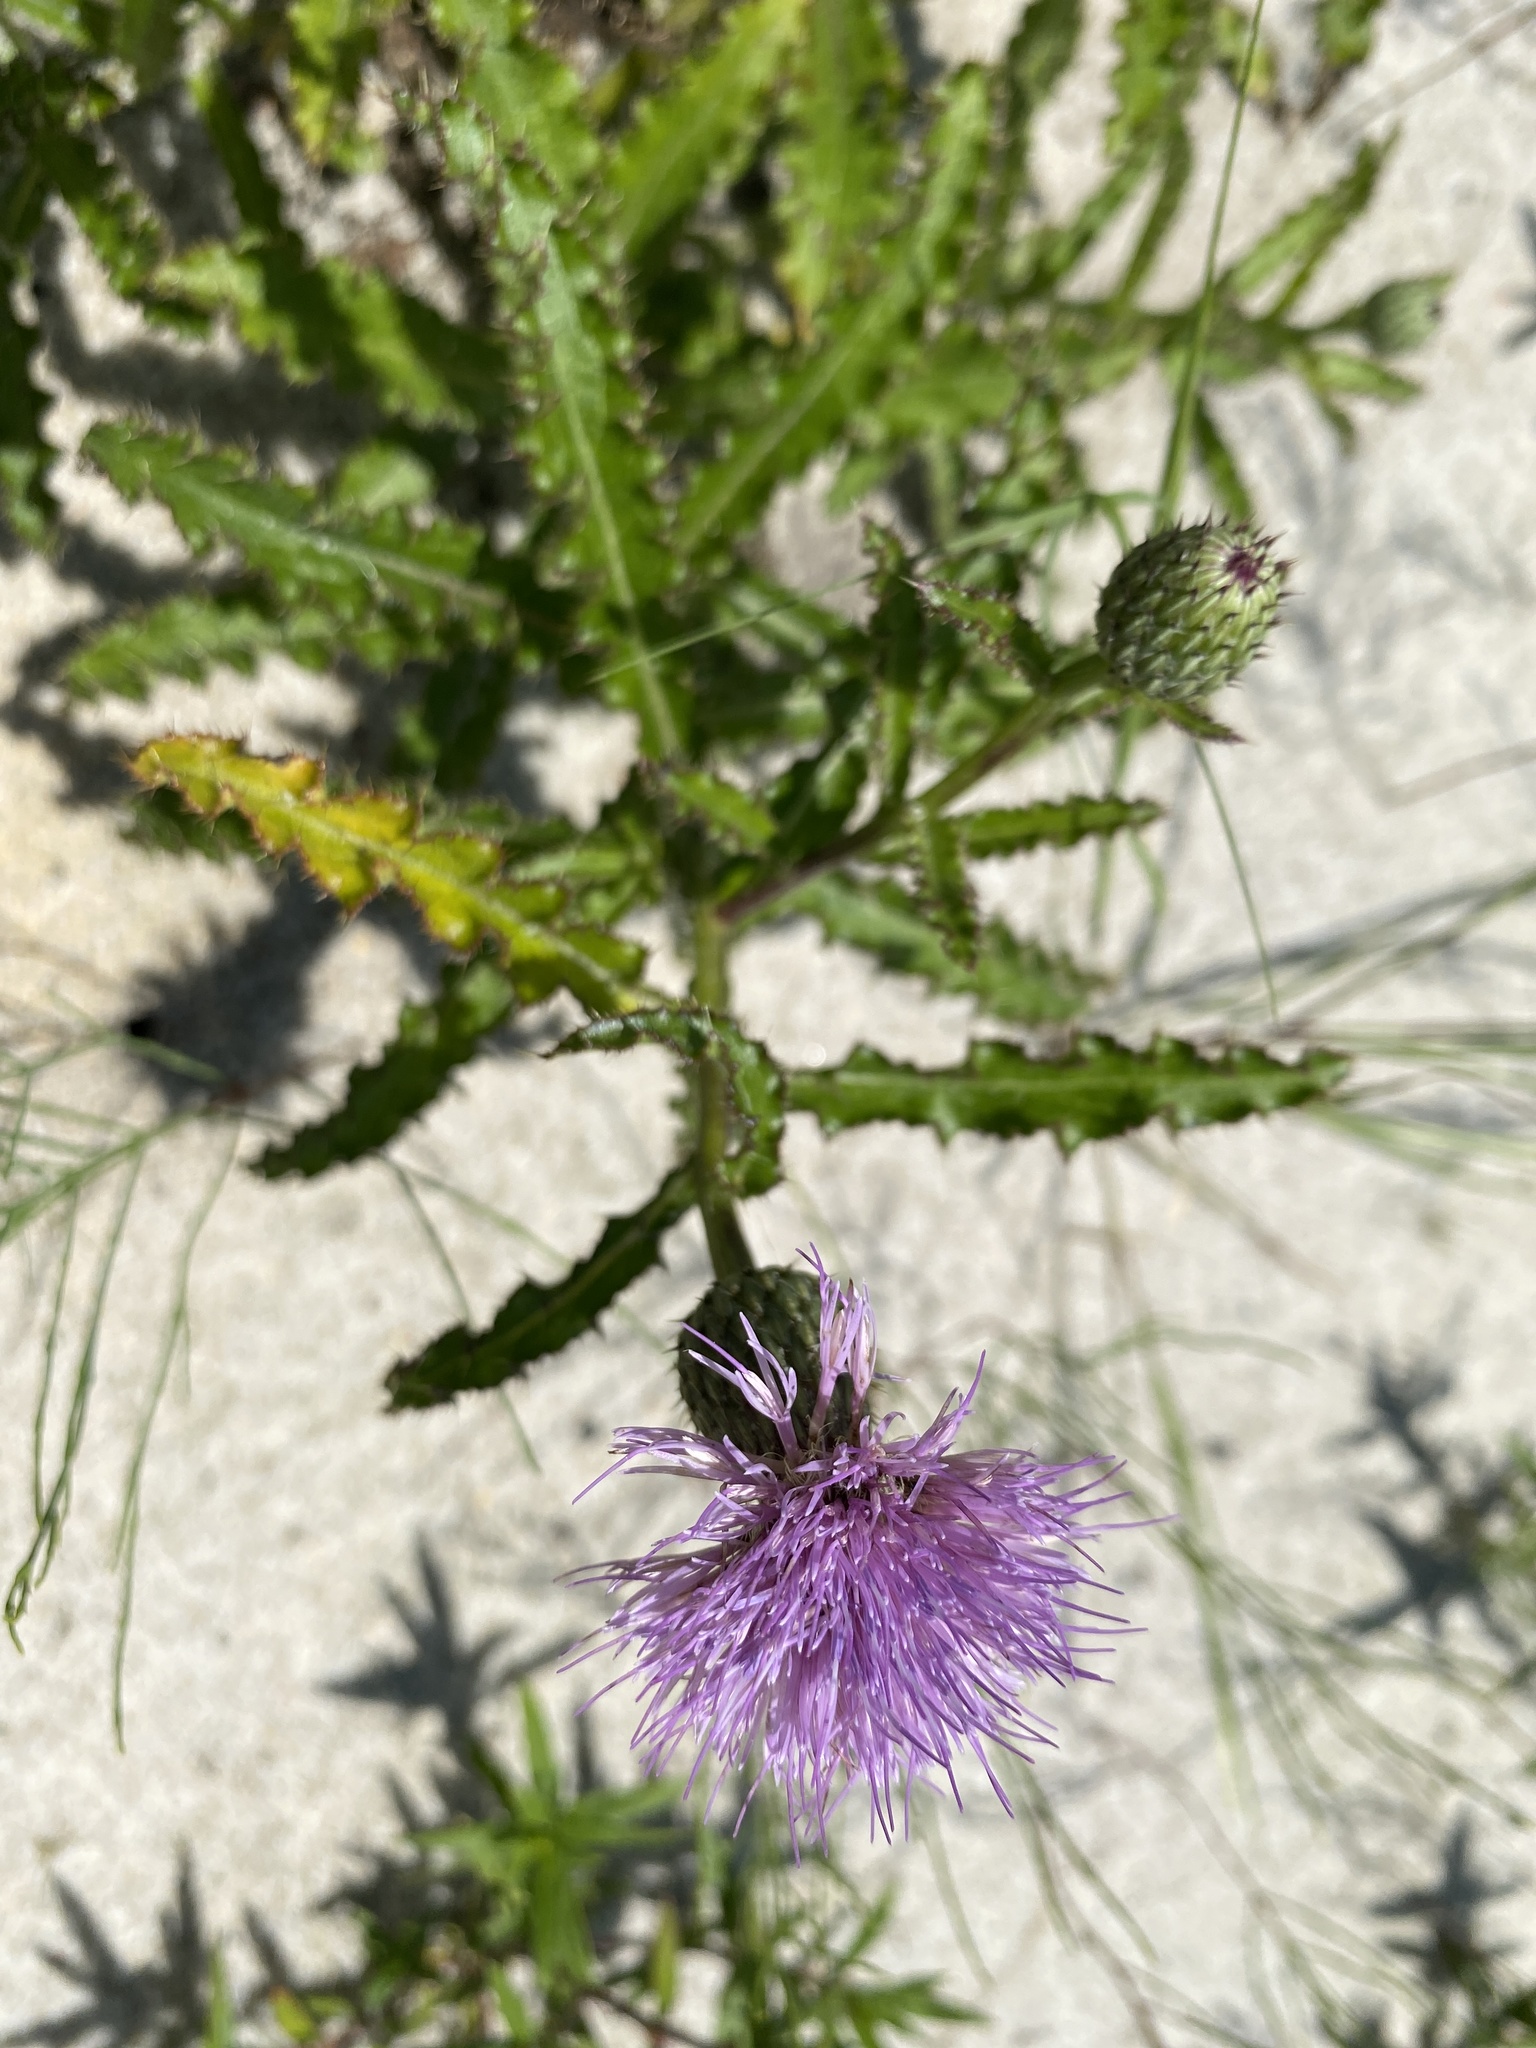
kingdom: Plantae
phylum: Tracheophyta
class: Magnoliopsida
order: Asterales
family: Asteraceae
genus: Cirsium
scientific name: Cirsium repandum
